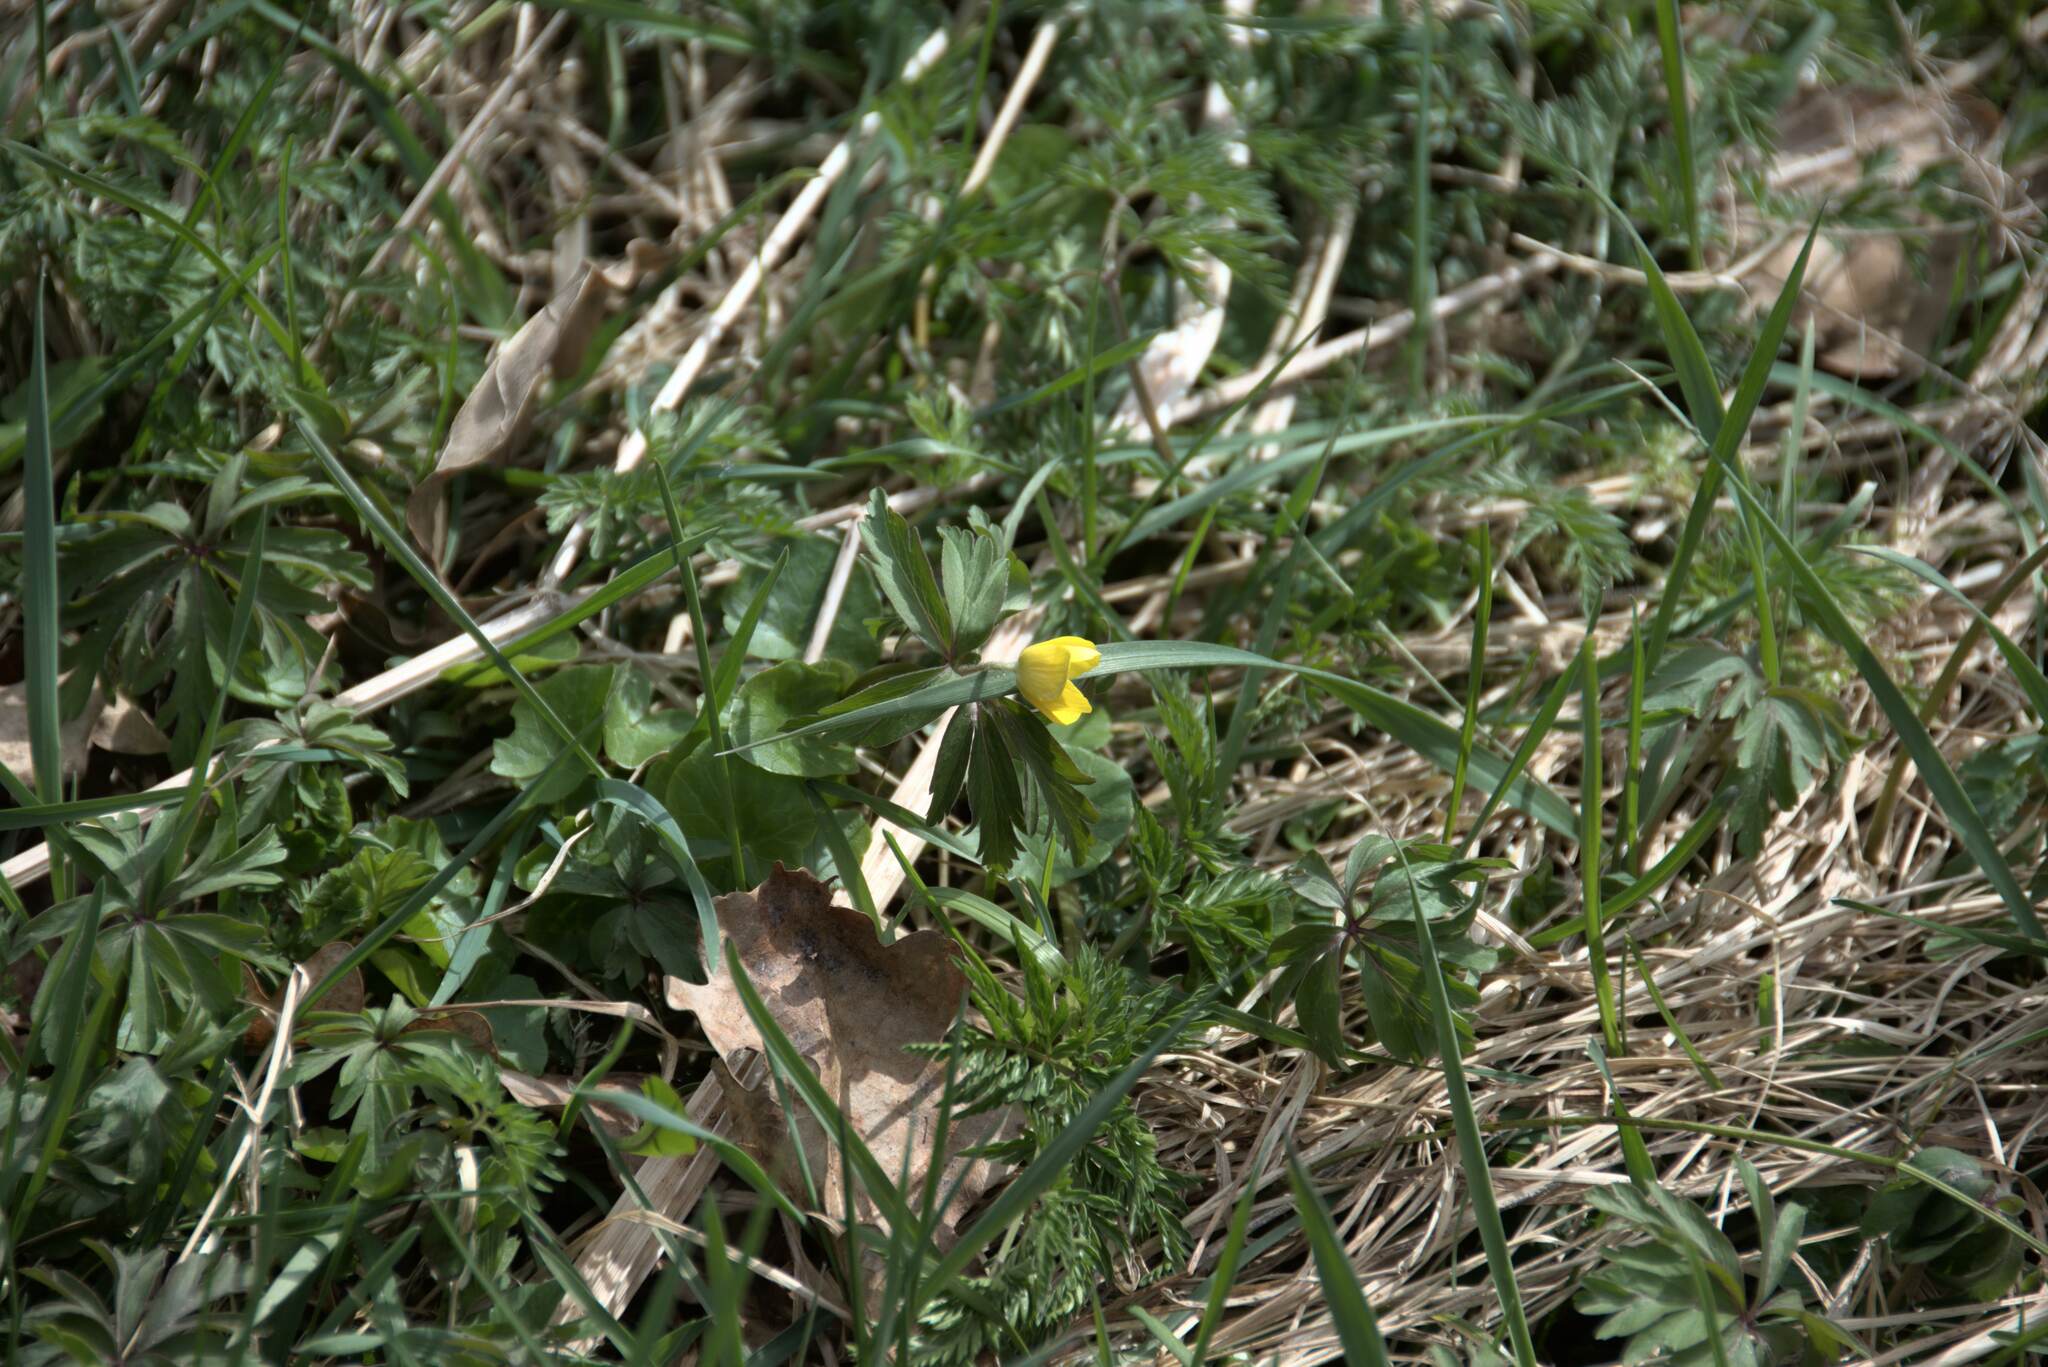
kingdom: Plantae
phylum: Tracheophyta
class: Magnoliopsida
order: Ranunculales
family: Ranunculaceae
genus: Anemone
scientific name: Anemone ranunculoides
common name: Yellow anemone
